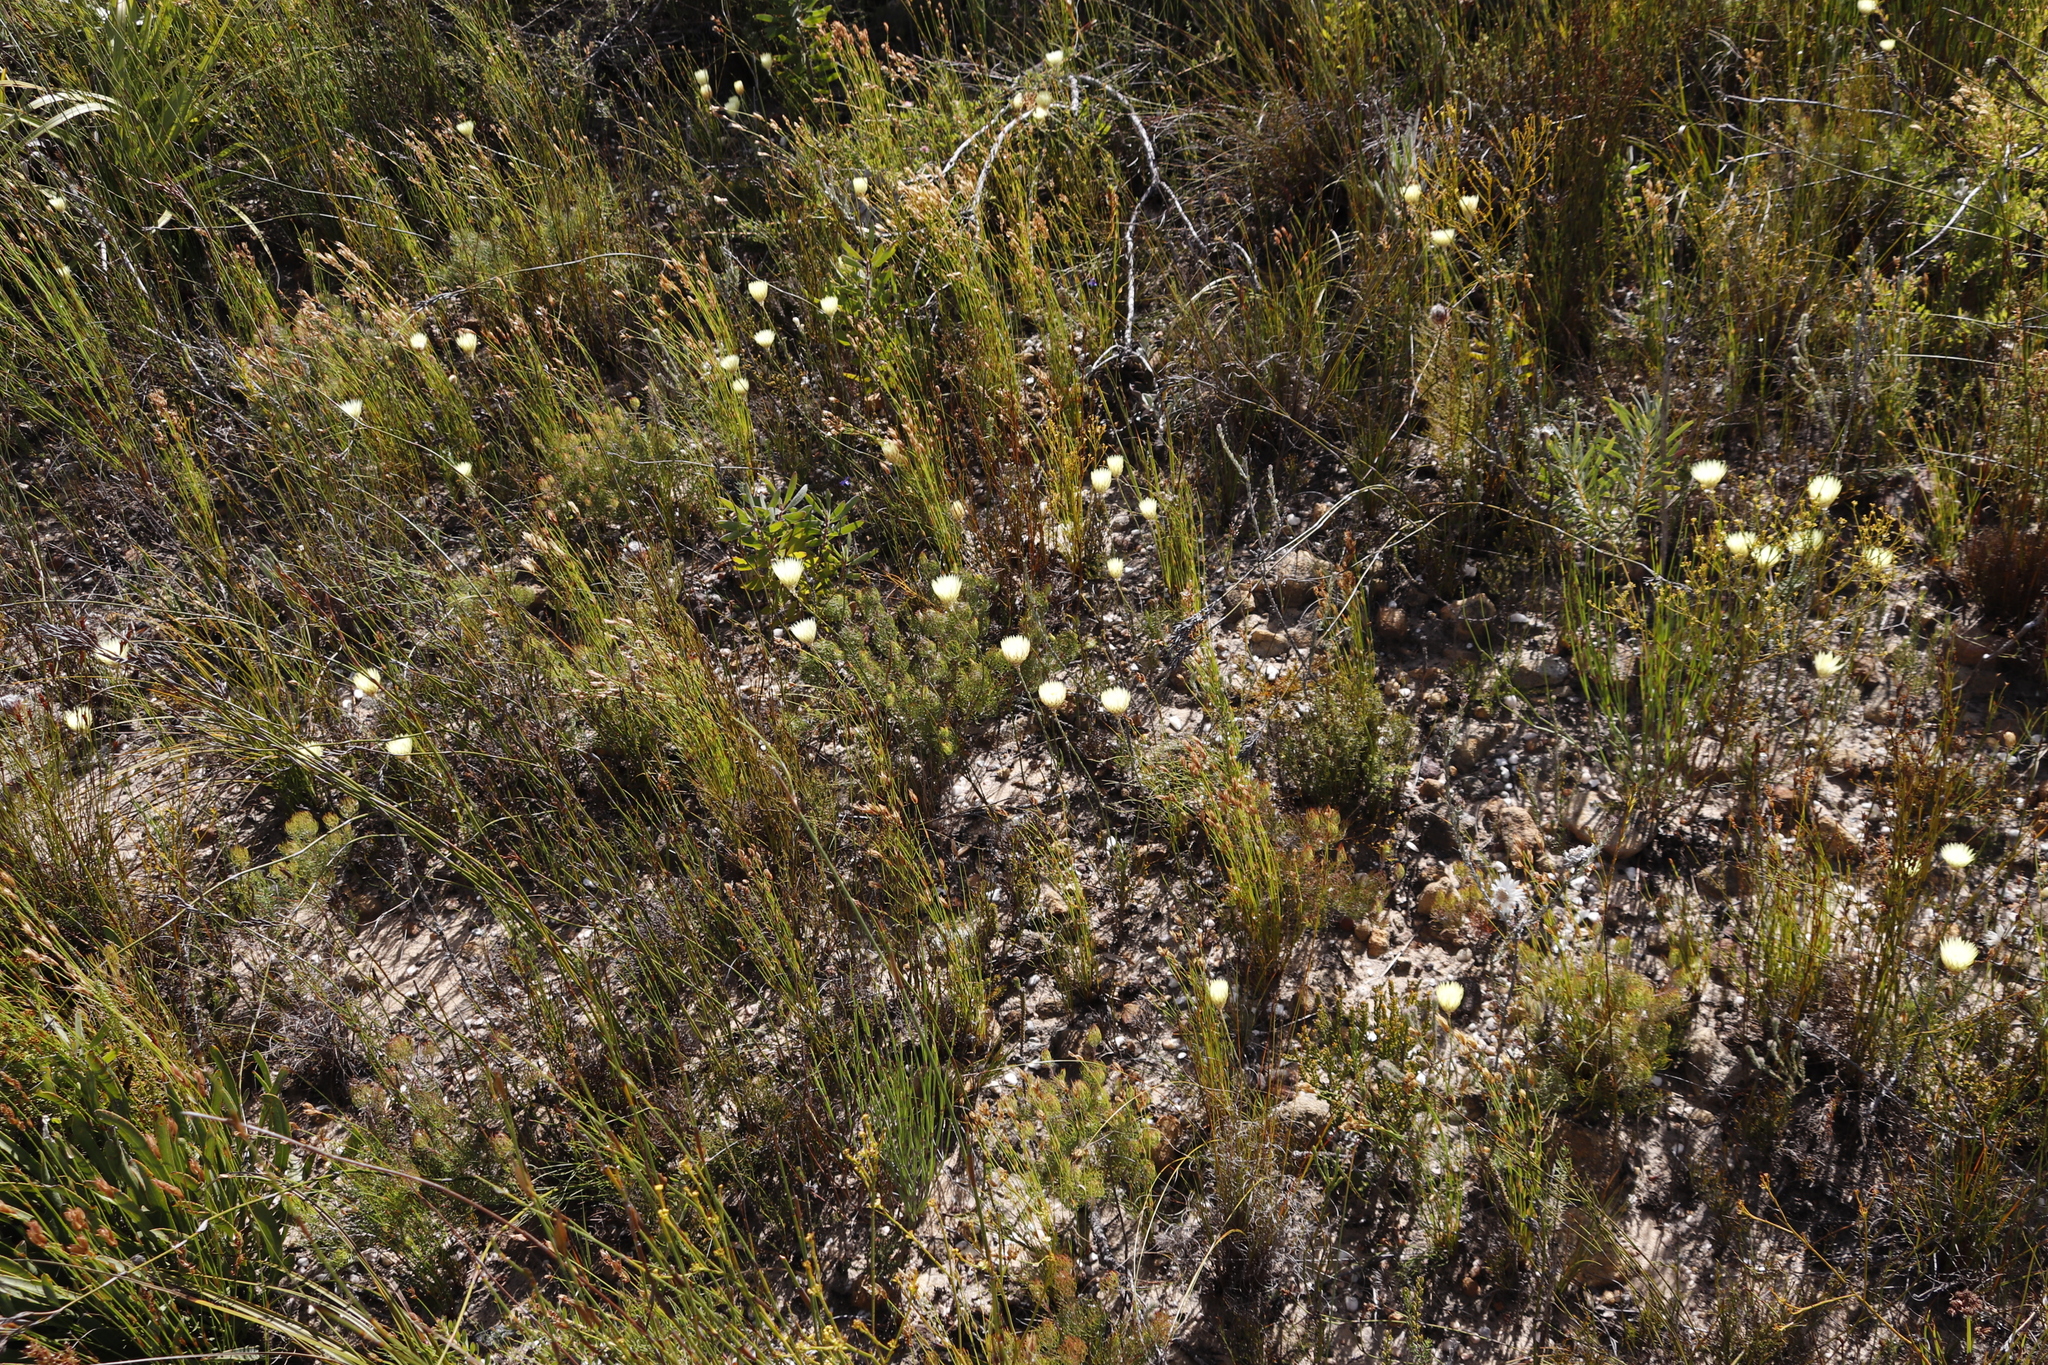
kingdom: Plantae
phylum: Tracheophyta
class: Magnoliopsida
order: Asterales
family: Asteraceae
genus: Edmondia
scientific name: Edmondia sesamoides
